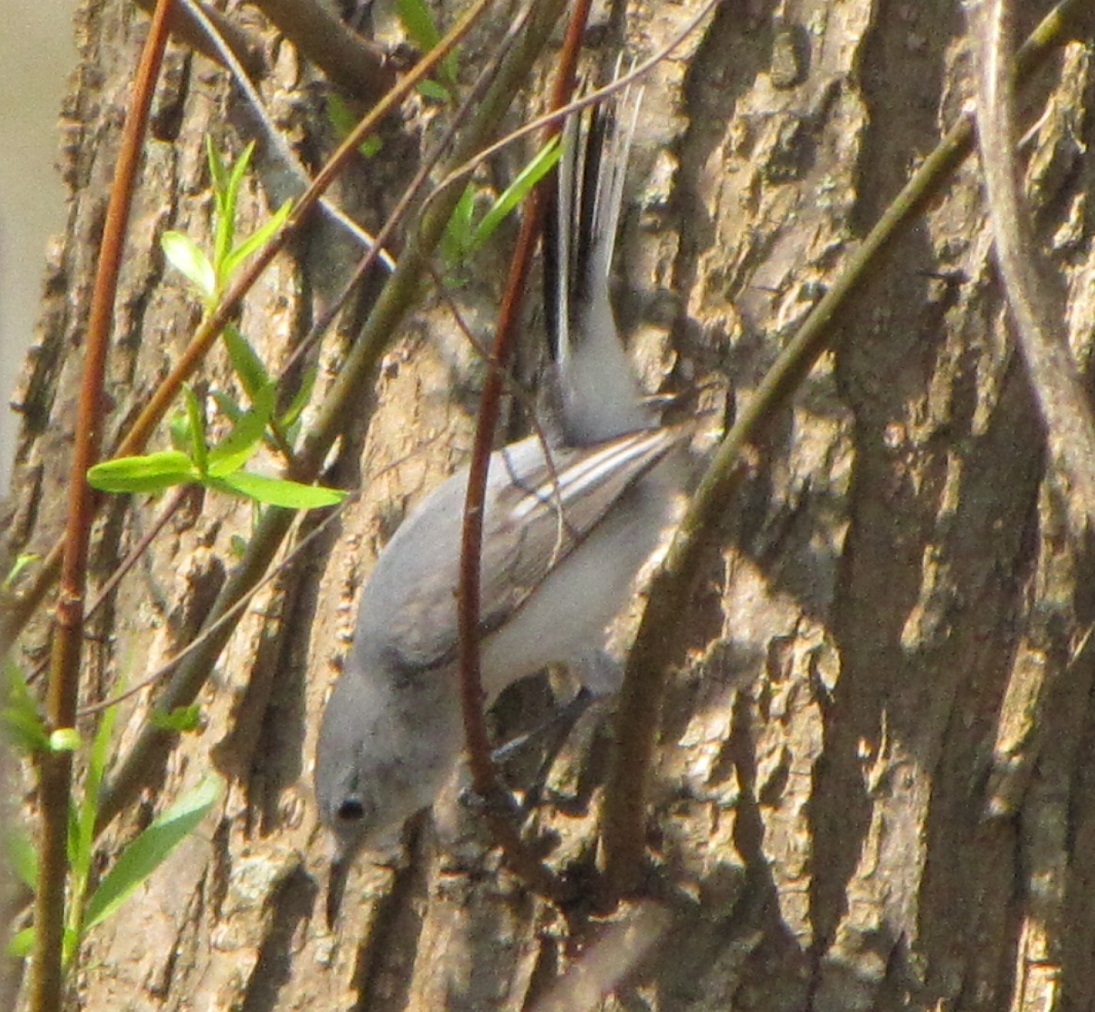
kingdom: Animalia
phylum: Chordata
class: Aves
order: Passeriformes
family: Polioptilidae
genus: Polioptila
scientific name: Polioptila caerulea
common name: Blue-gray gnatcatcher
